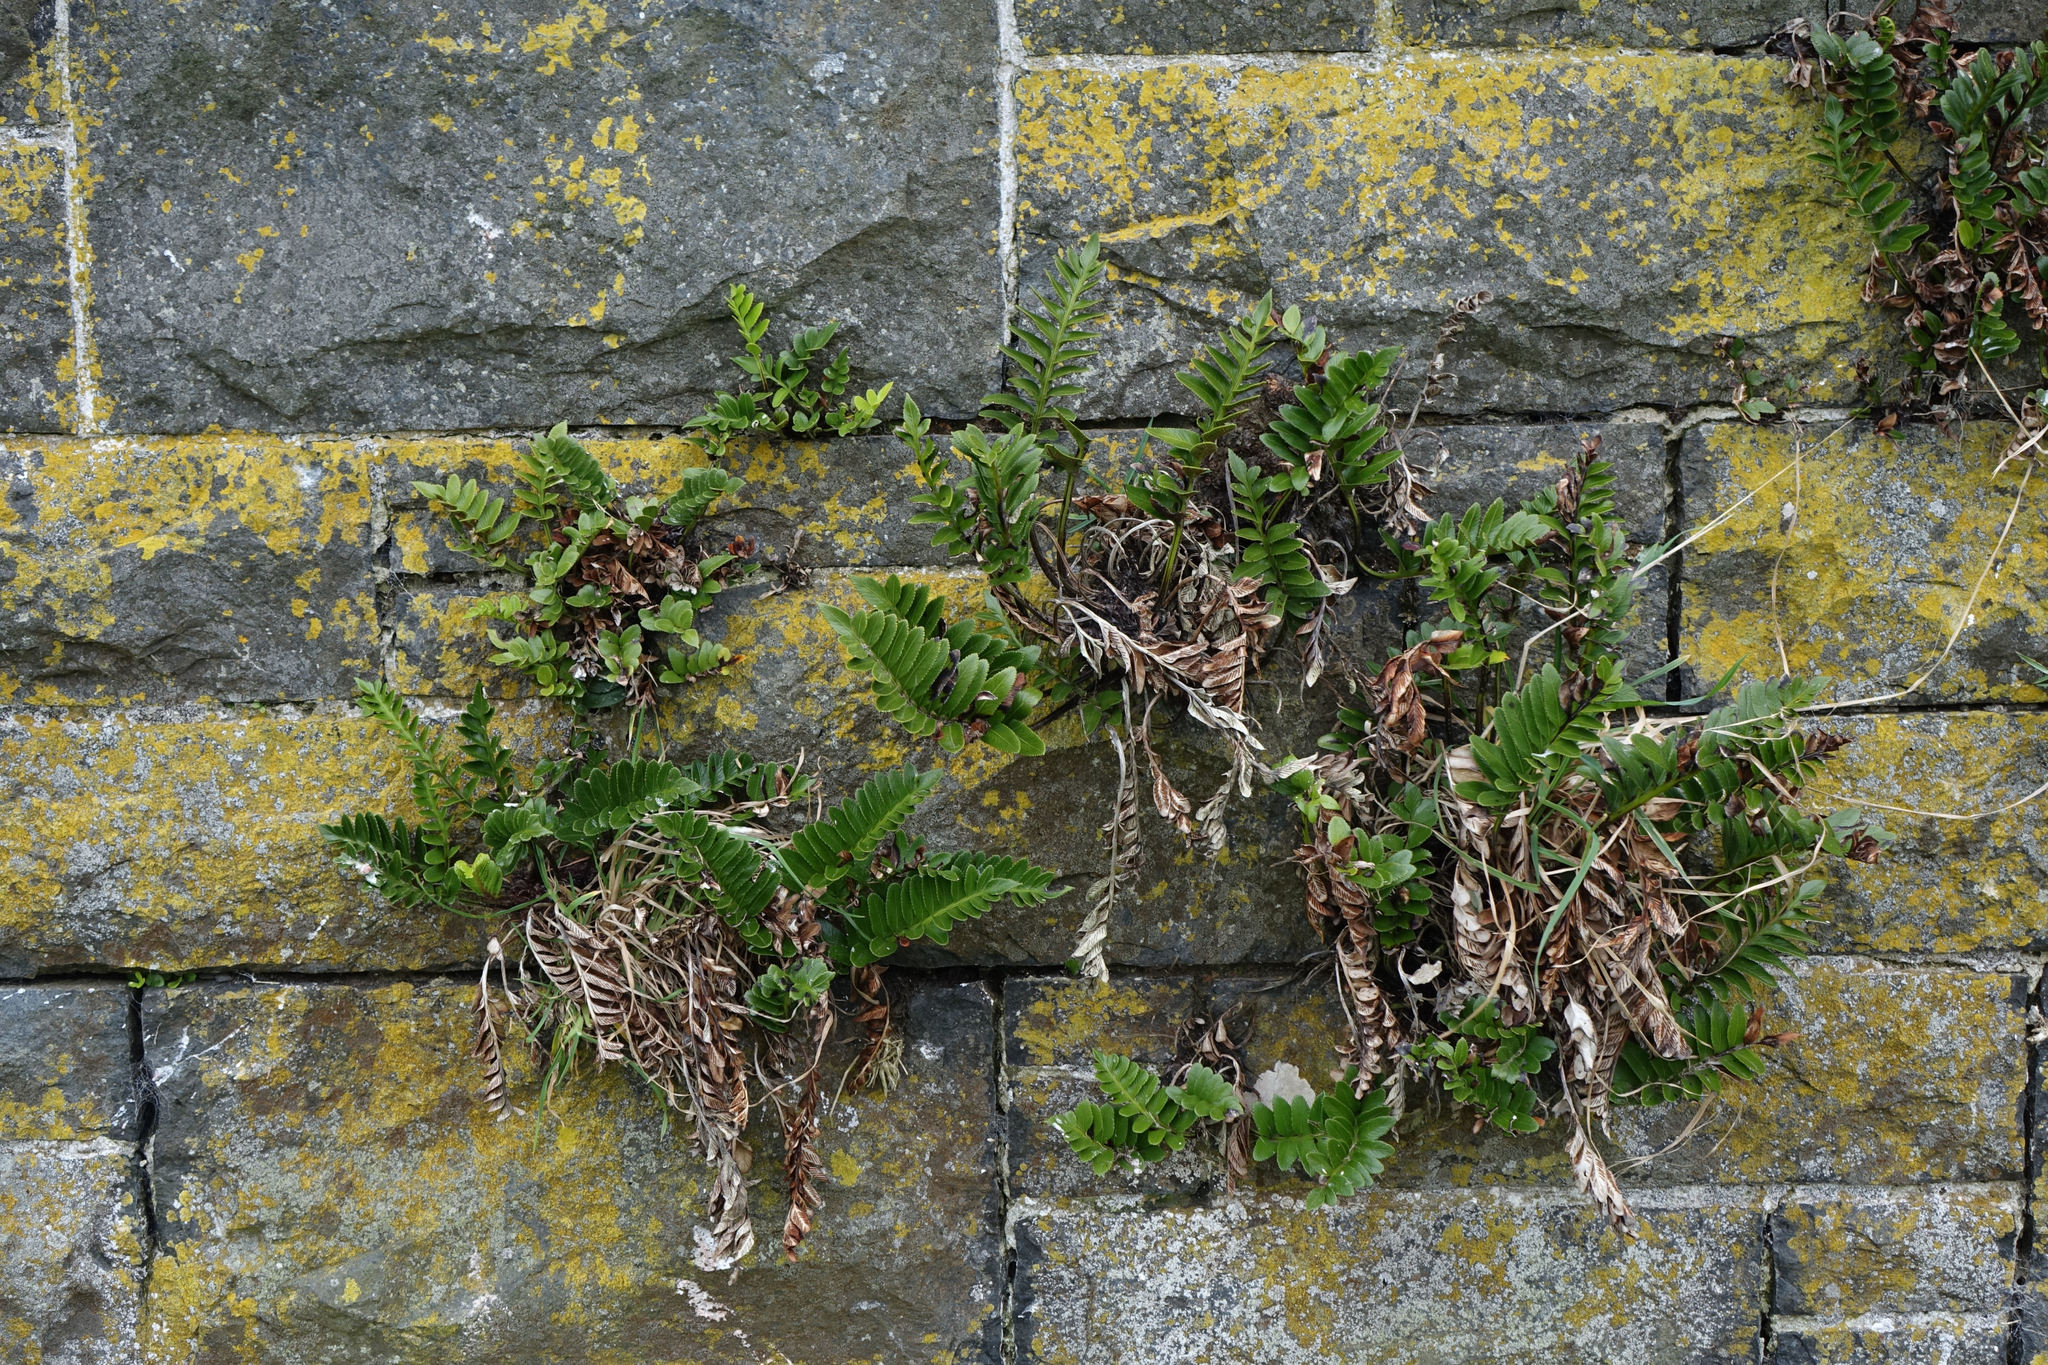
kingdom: Plantae
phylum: Tracheophyta
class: Polypodiopsida
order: Polypodiales
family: Aspleniaceae
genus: Asplenium
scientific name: Asplenium obtusatum
